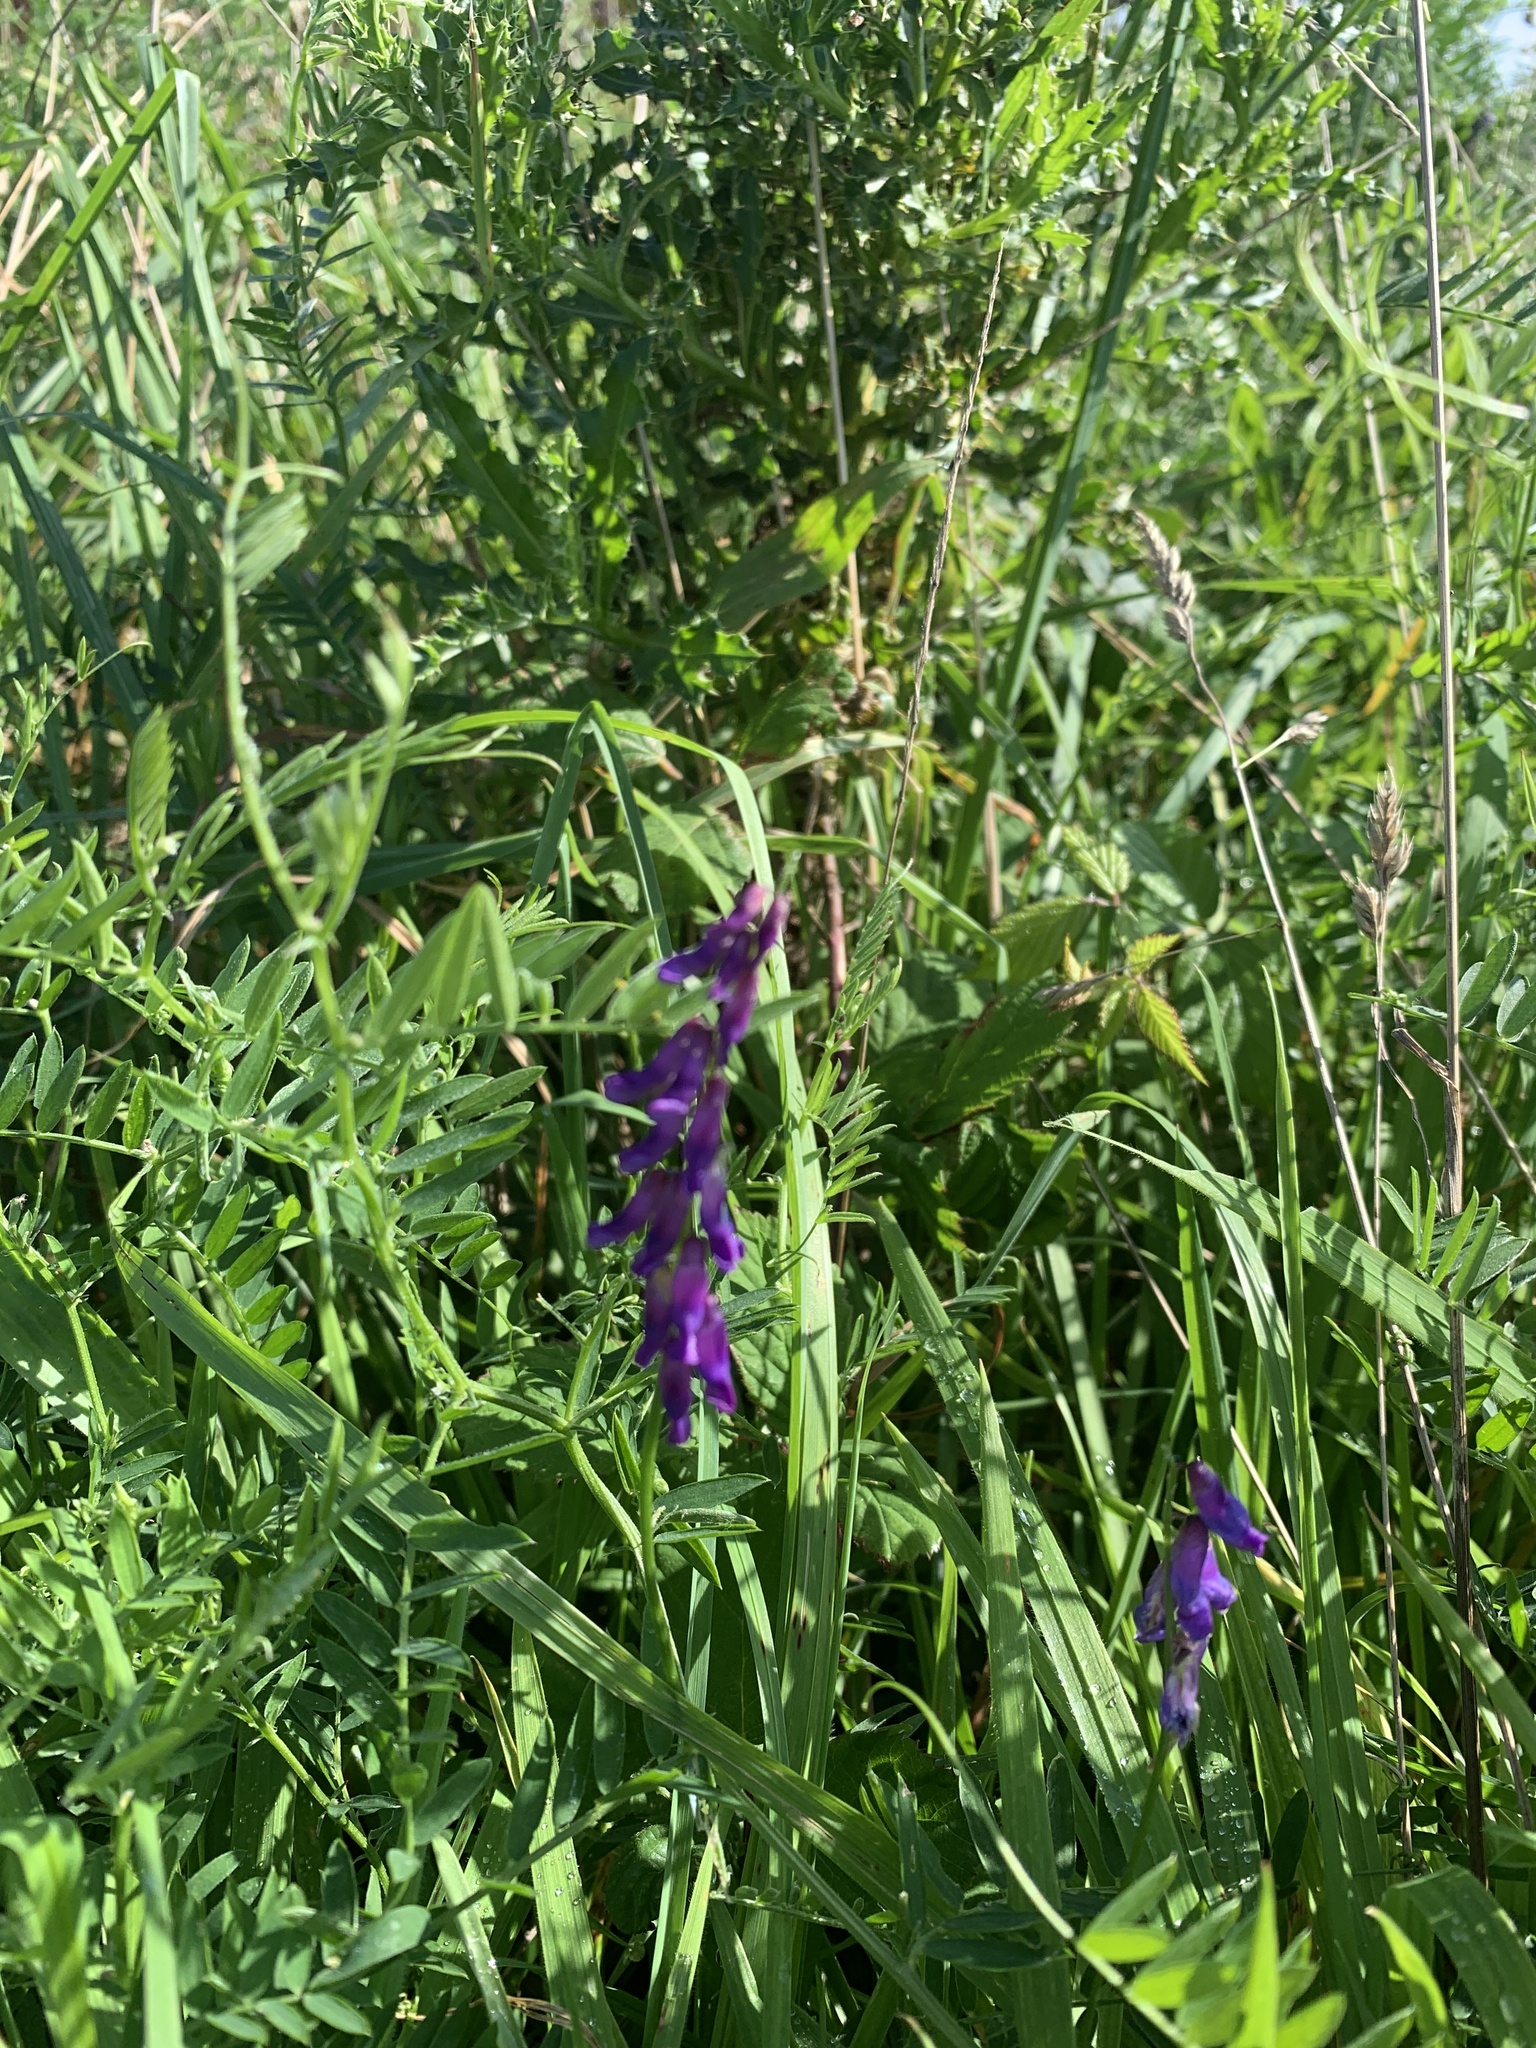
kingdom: Plantae
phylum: Tracheophyta
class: Magnoliopsida
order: Fabales
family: Fabaceae
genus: Vicia
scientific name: Vicia cracca
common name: Bird vetch
